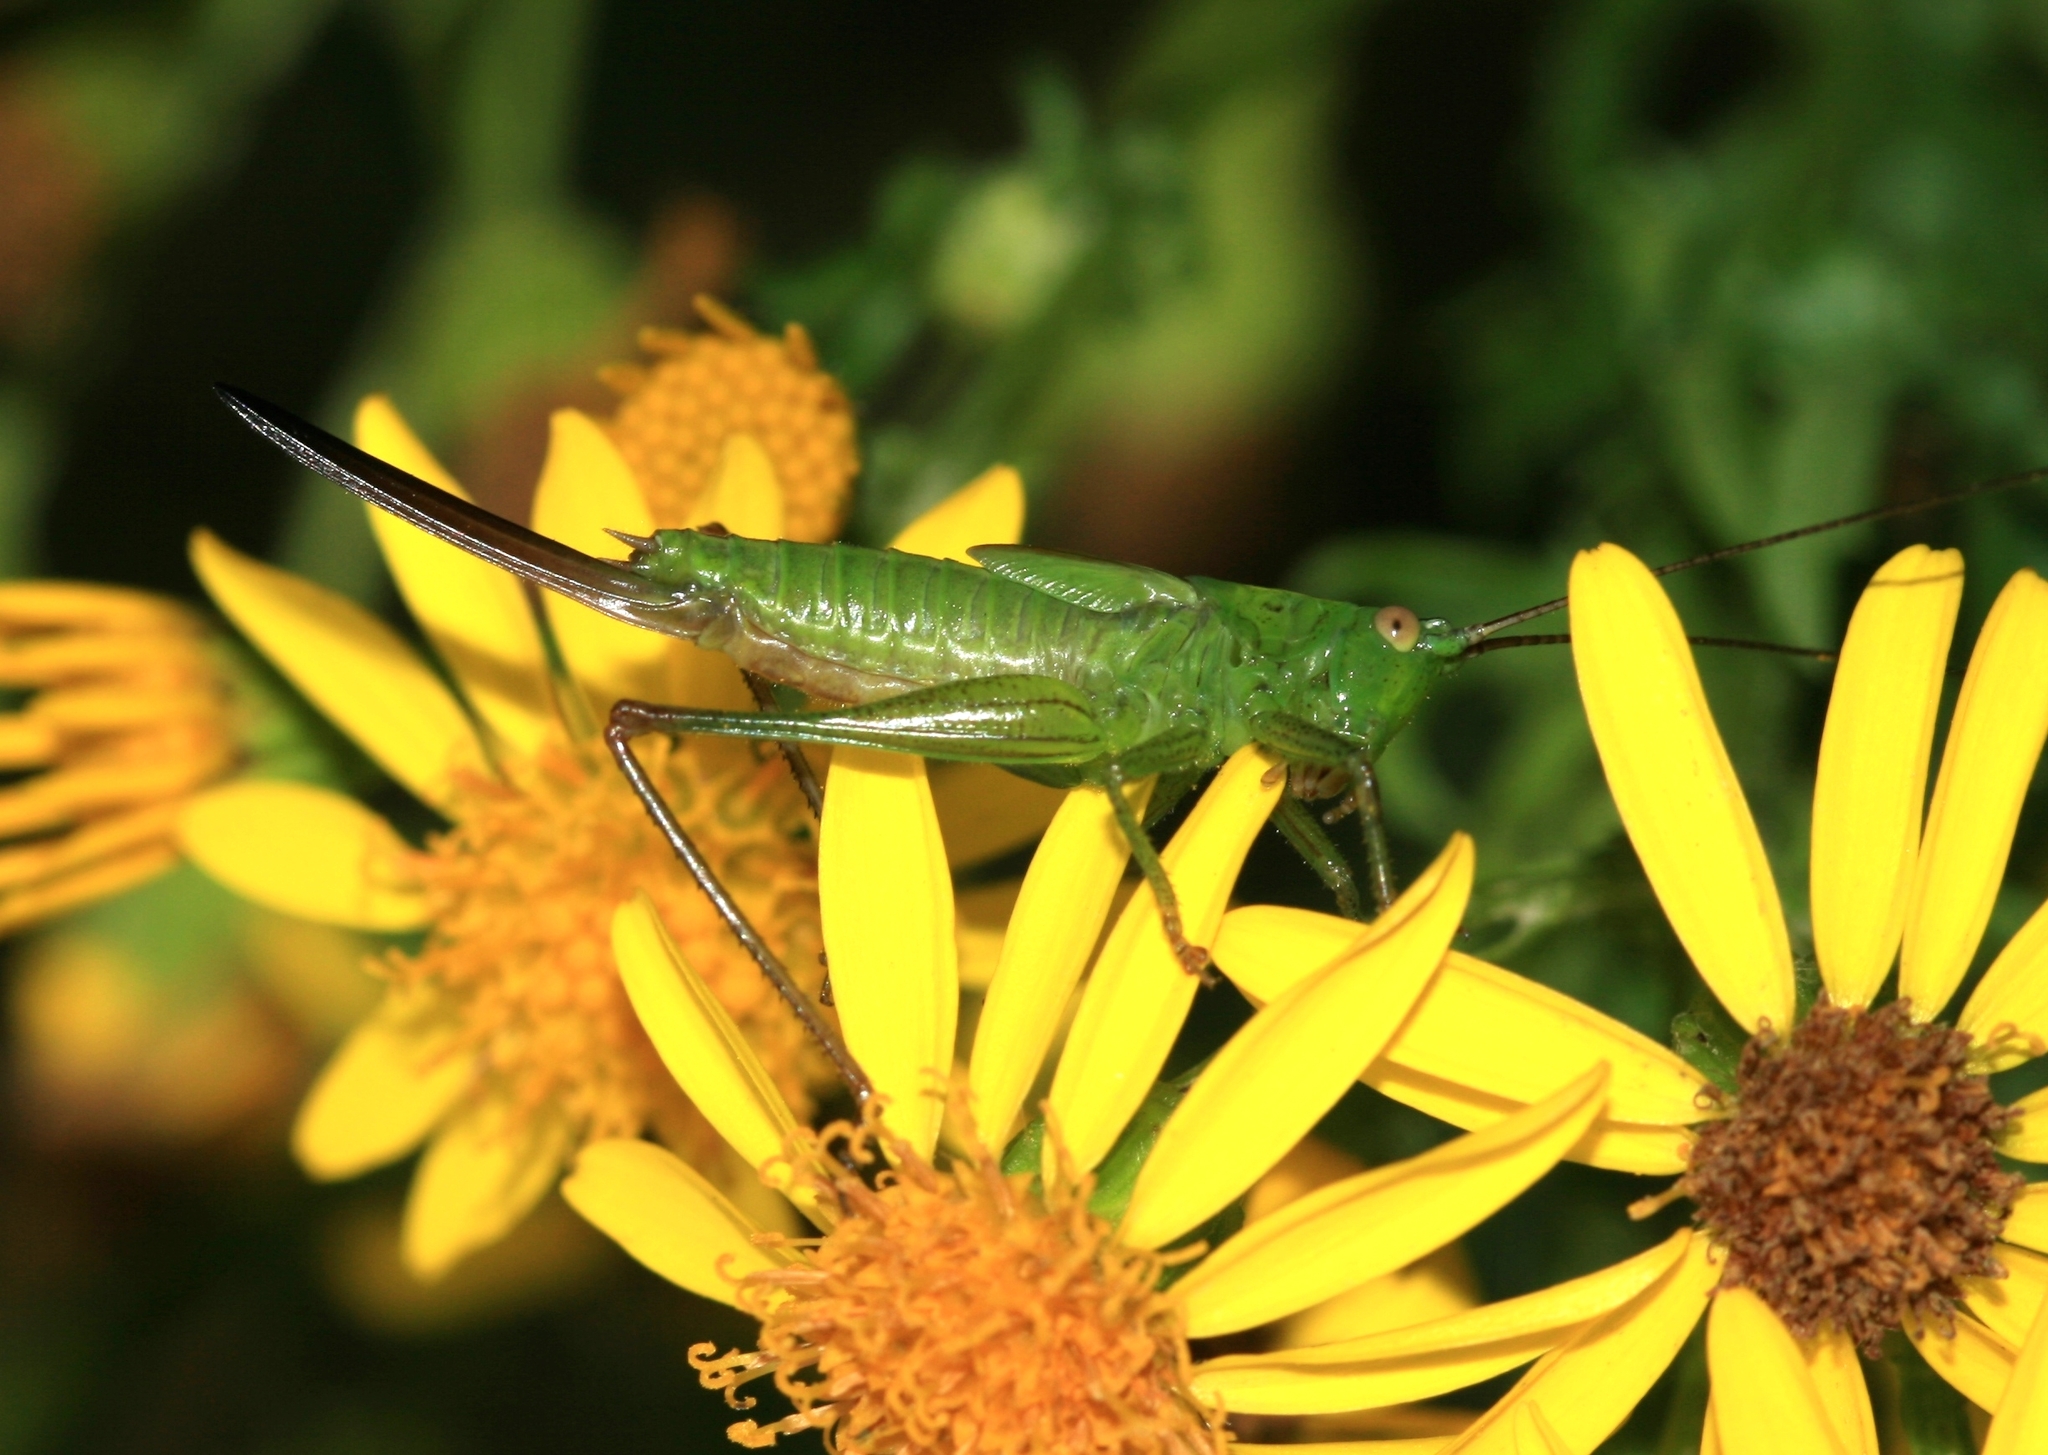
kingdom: Animalia
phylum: Arthropoda
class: Insecta
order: Orthoptera
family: Tettigoniidae
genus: Conocephalus
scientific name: Conocephalus fuscus
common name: Long-winged conehead
